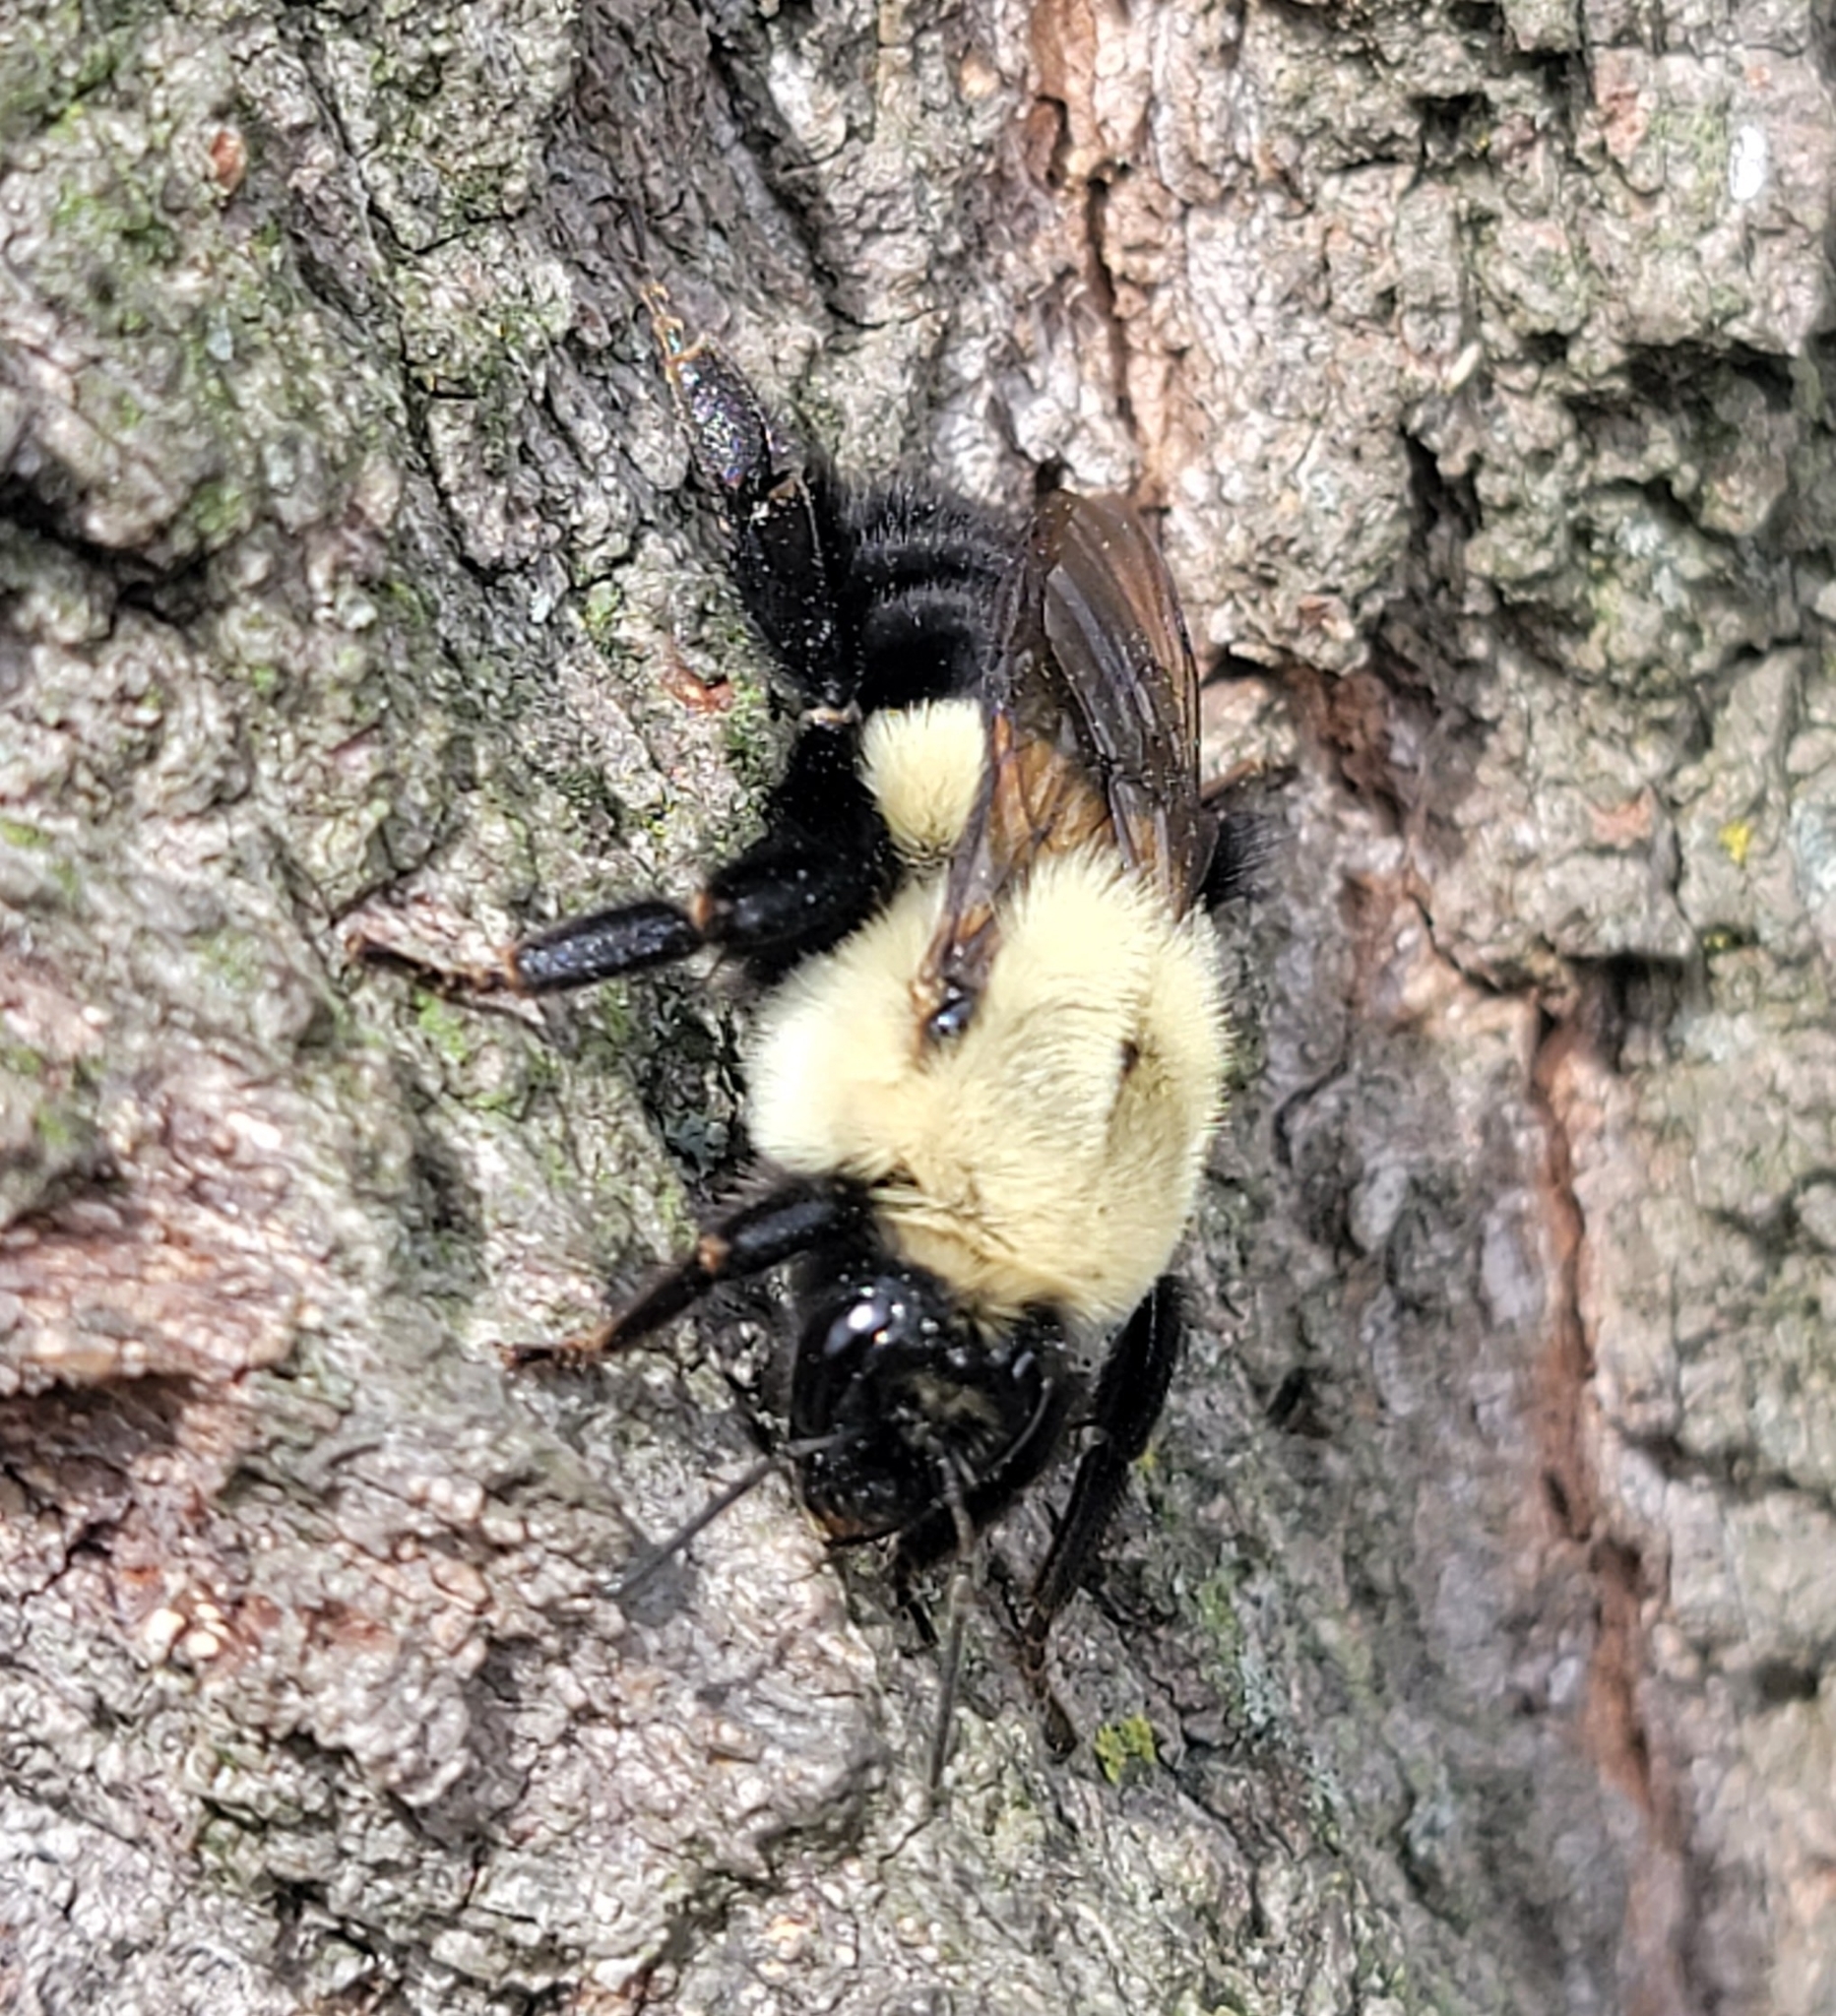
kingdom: Animalia
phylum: Arthropoda
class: Insecta
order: Hymenoptera
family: Apidae
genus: Bombus
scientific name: Bombus impatiens
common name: Common eastern bumble bee
